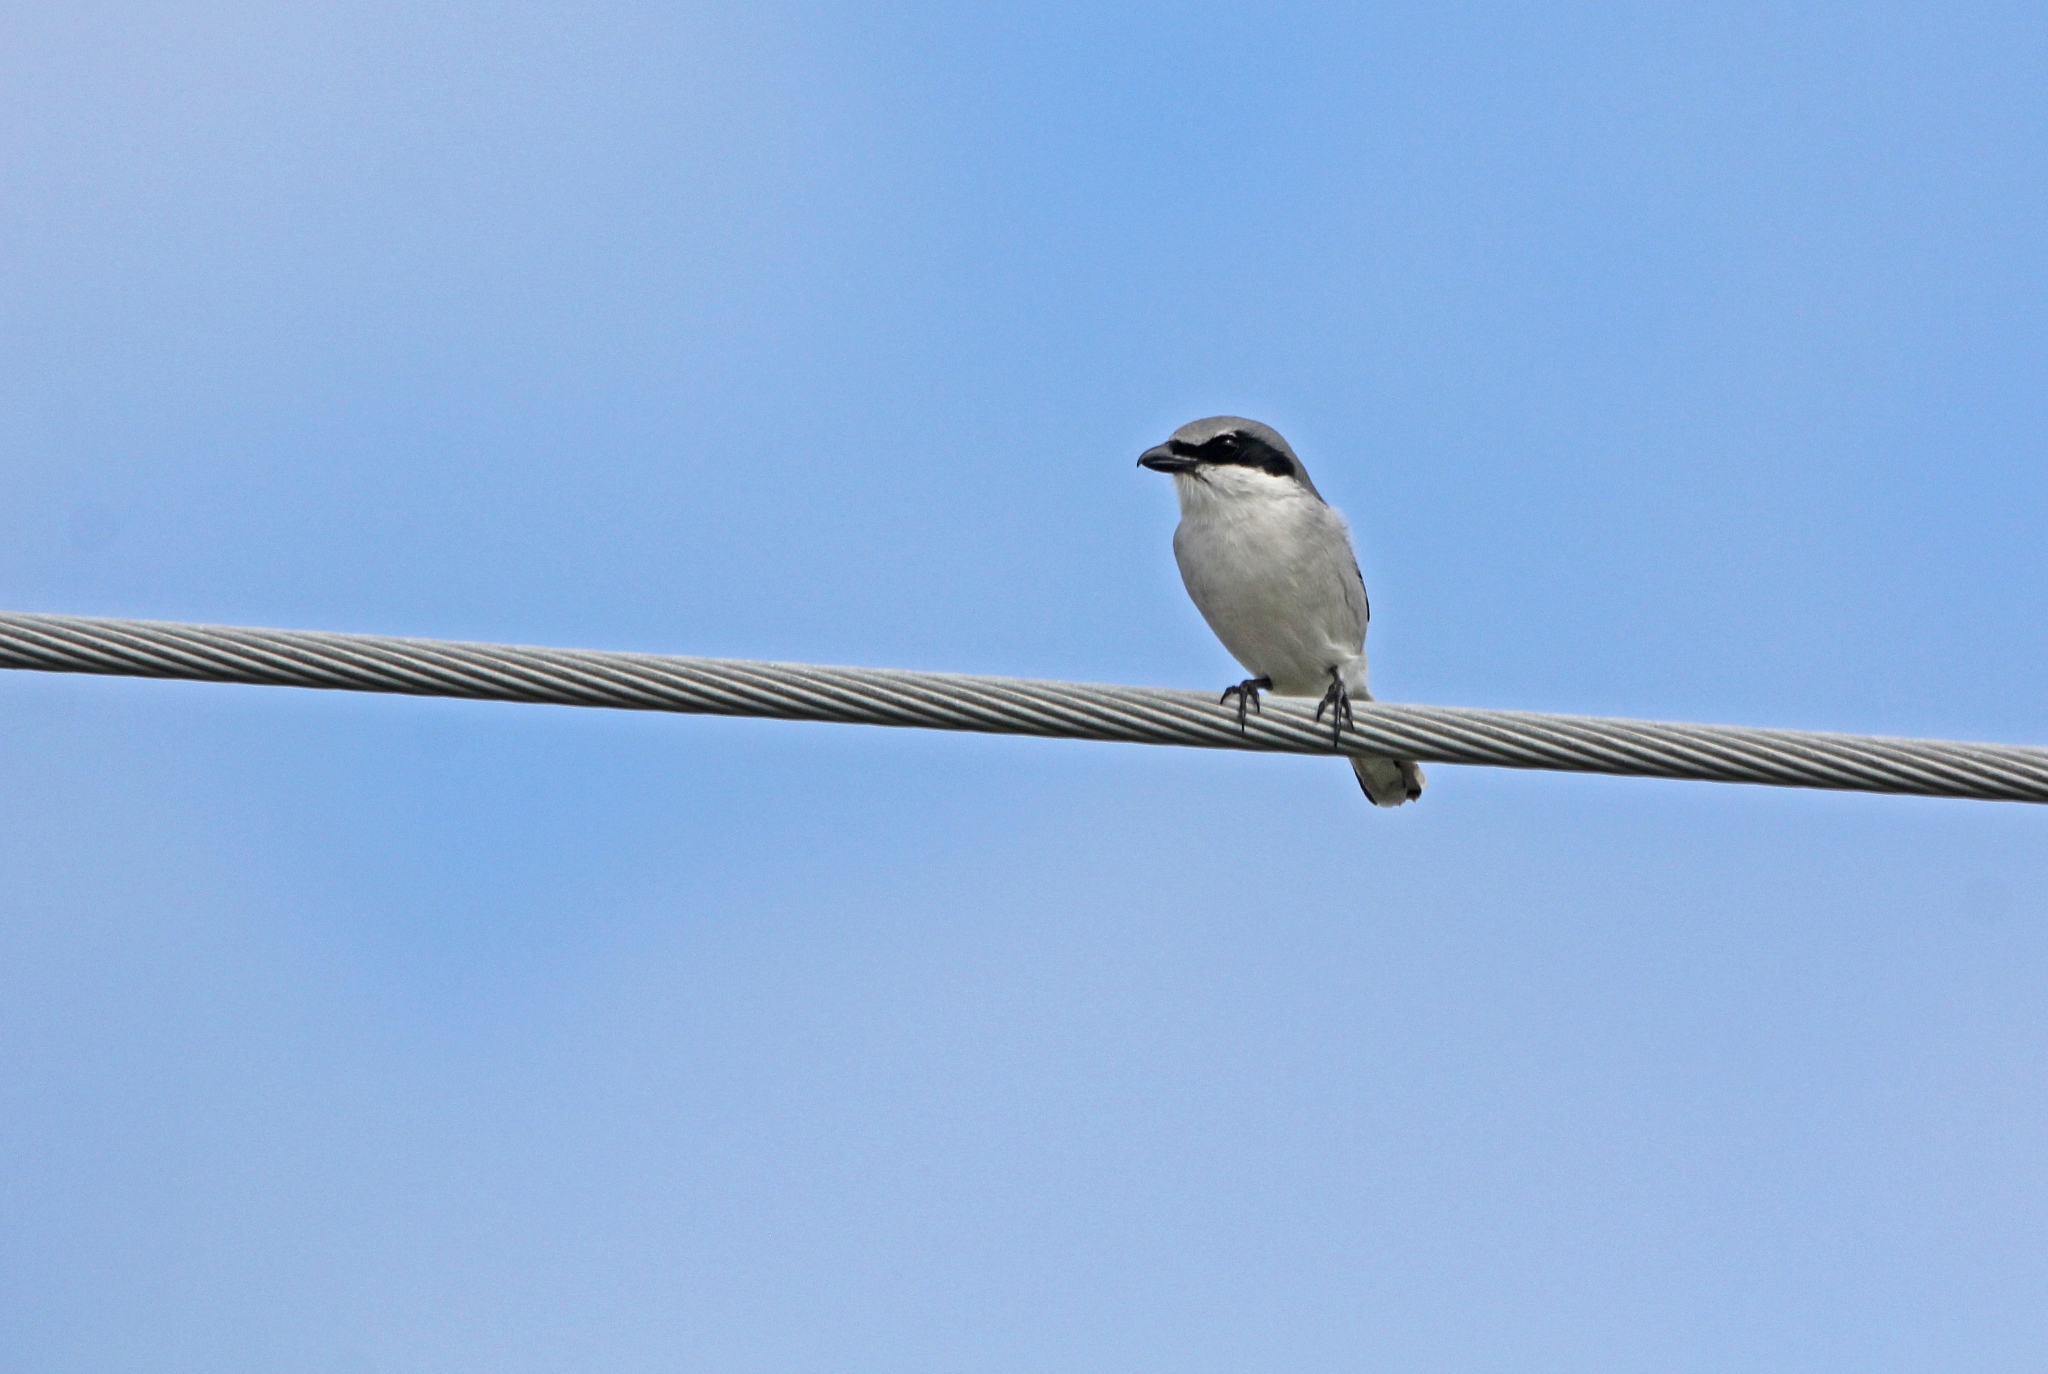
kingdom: Animalia
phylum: Chordata
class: Aves
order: Passeriformes
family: Laniidae
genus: Lanius
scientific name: Lanius ludovicianus
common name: Loggerhead shrike
